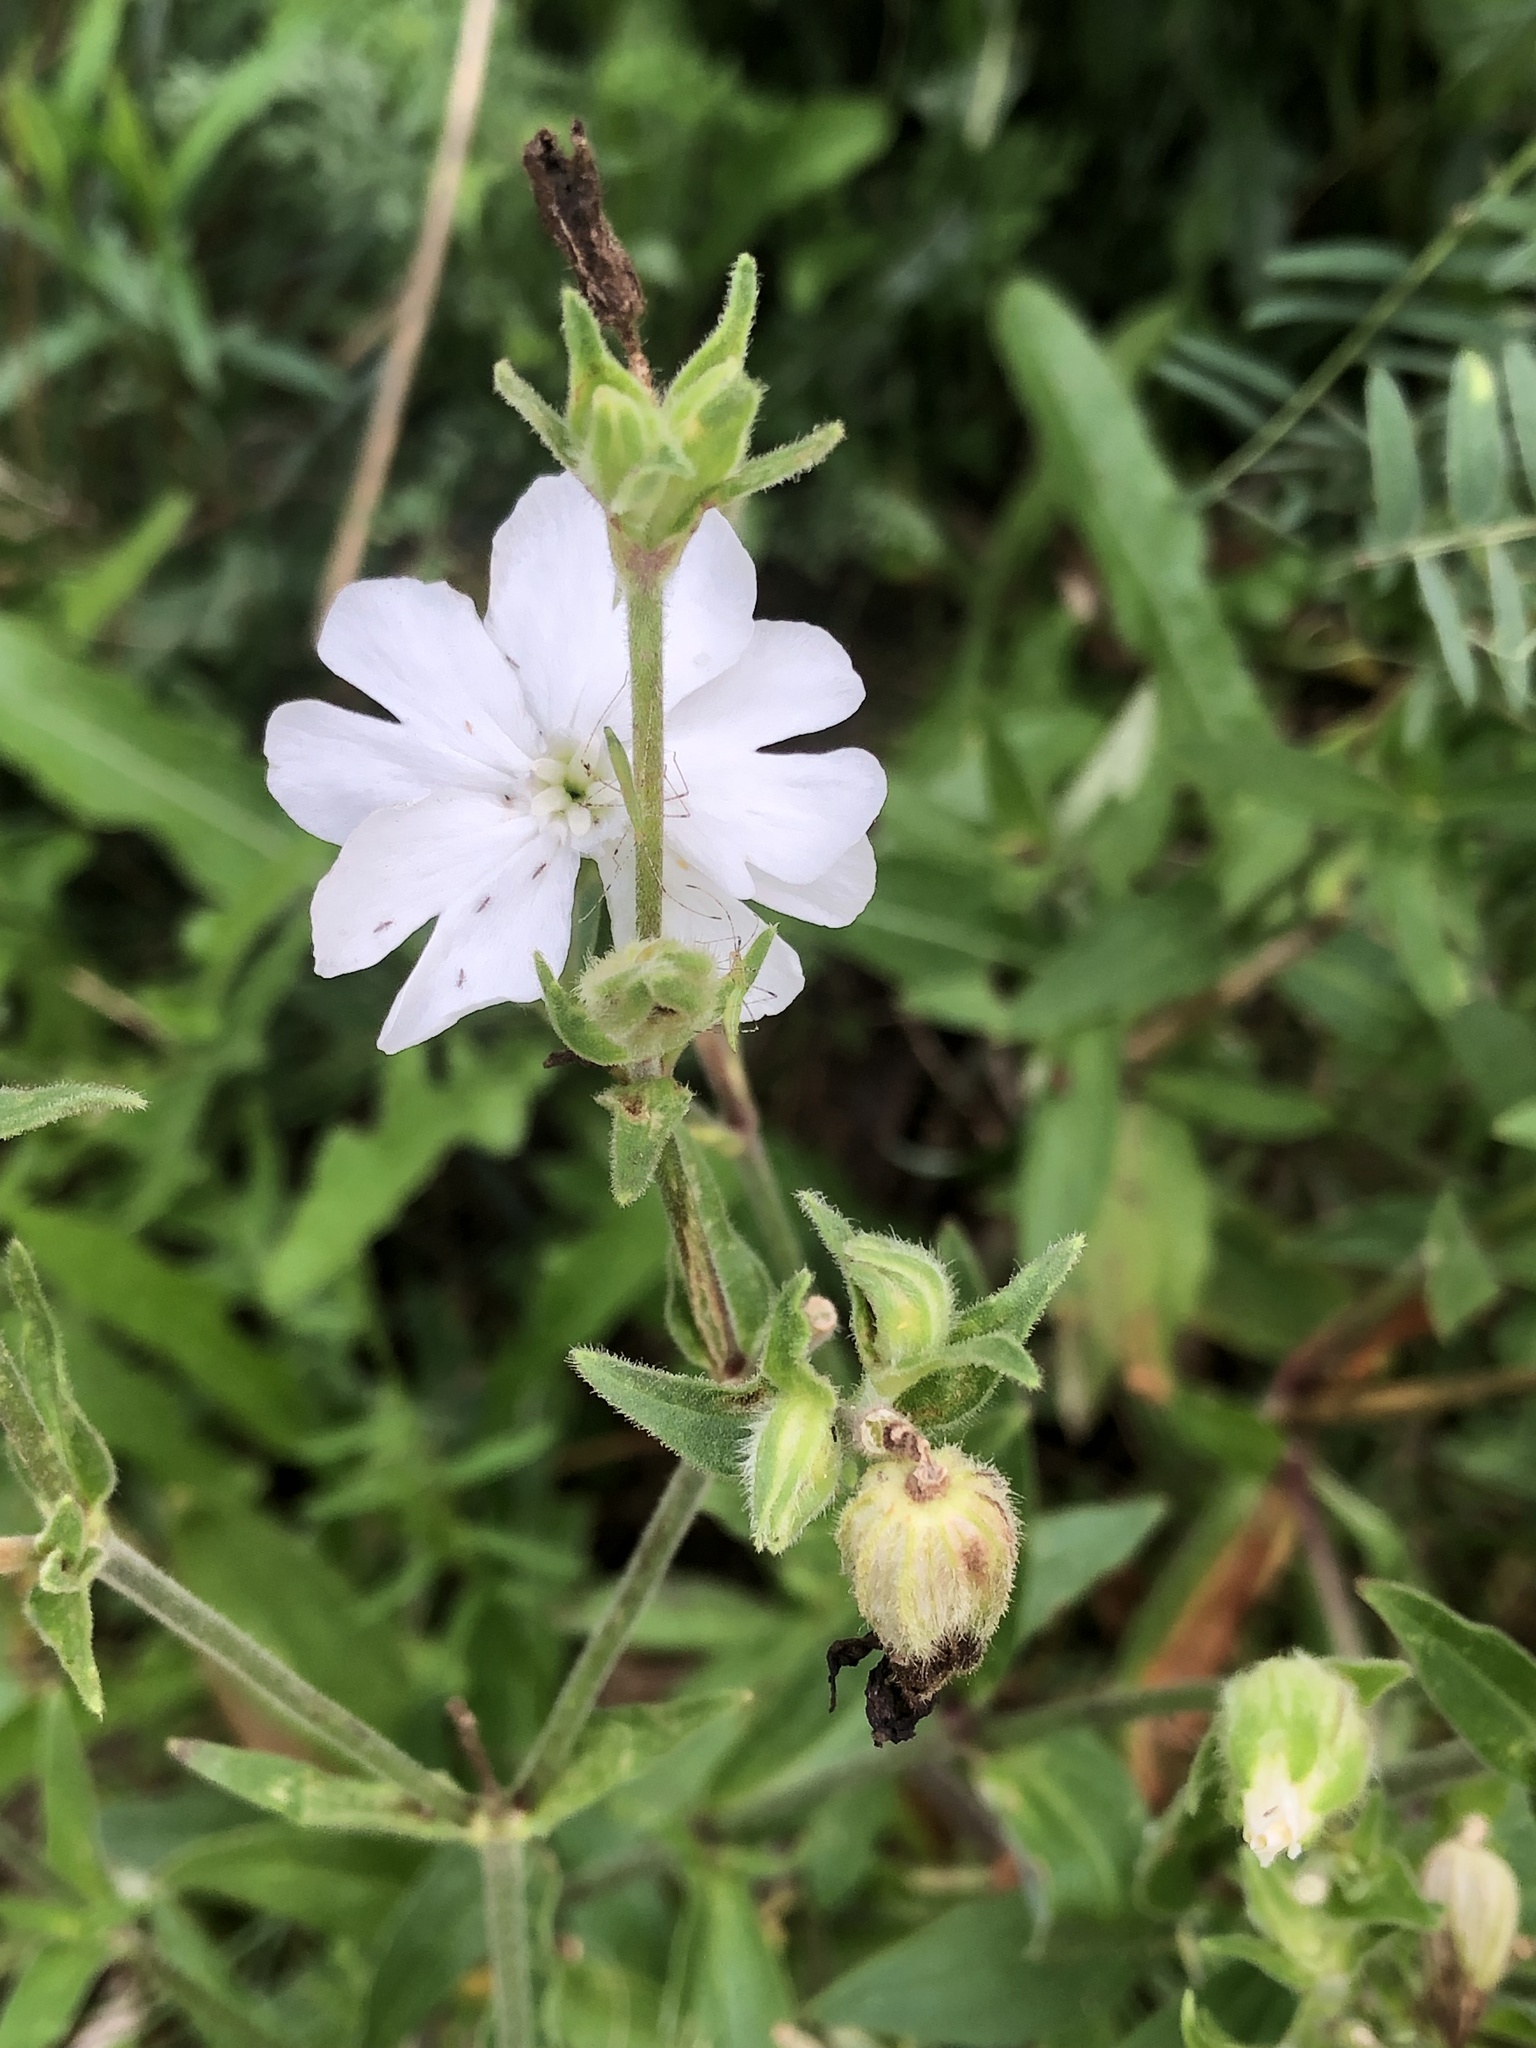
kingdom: Plantae
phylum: Tracheophyta
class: Magnoliopsida
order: Caryophyllales
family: Caryophyllaceae
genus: Silene
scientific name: Silene latifolia
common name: White campion
